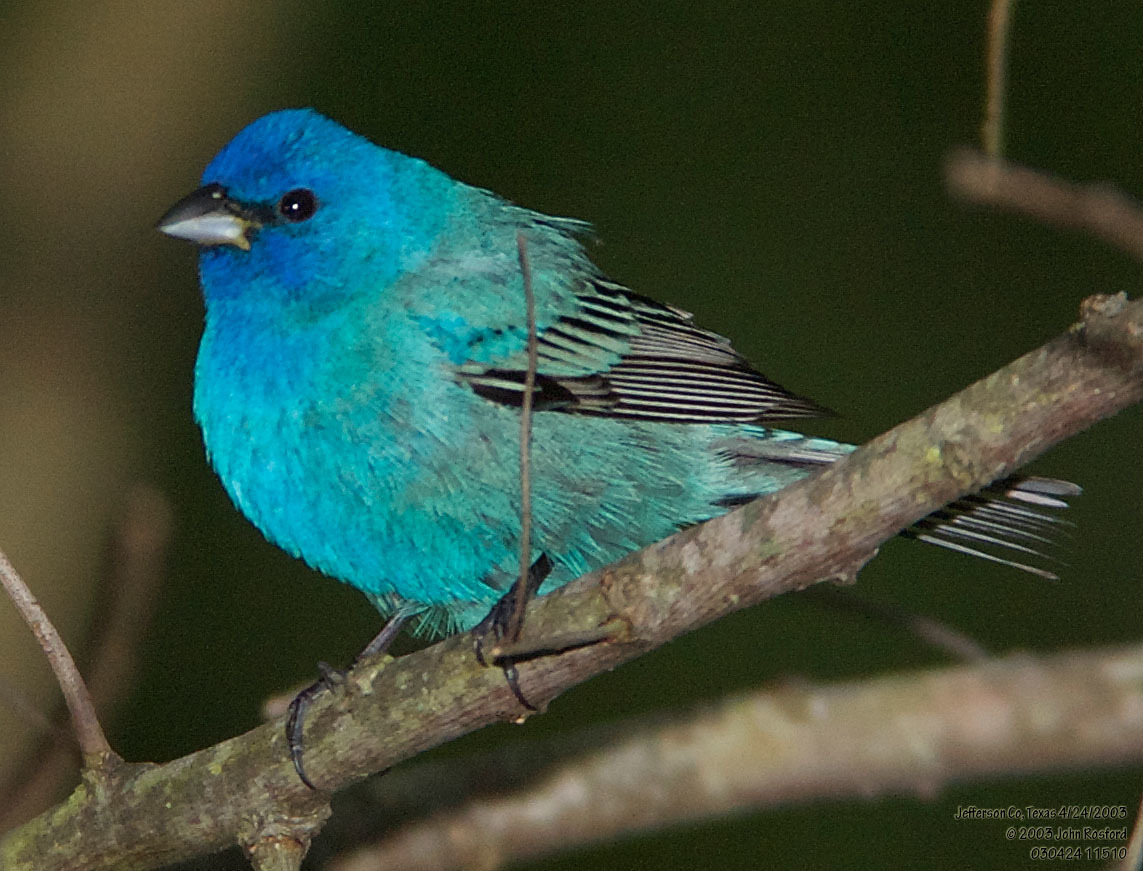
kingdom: Animalia
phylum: Chordata
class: Aves
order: Passeriformes
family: Cardinalidae
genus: Passerina
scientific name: Passerina cyanea
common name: Indigo bunting
